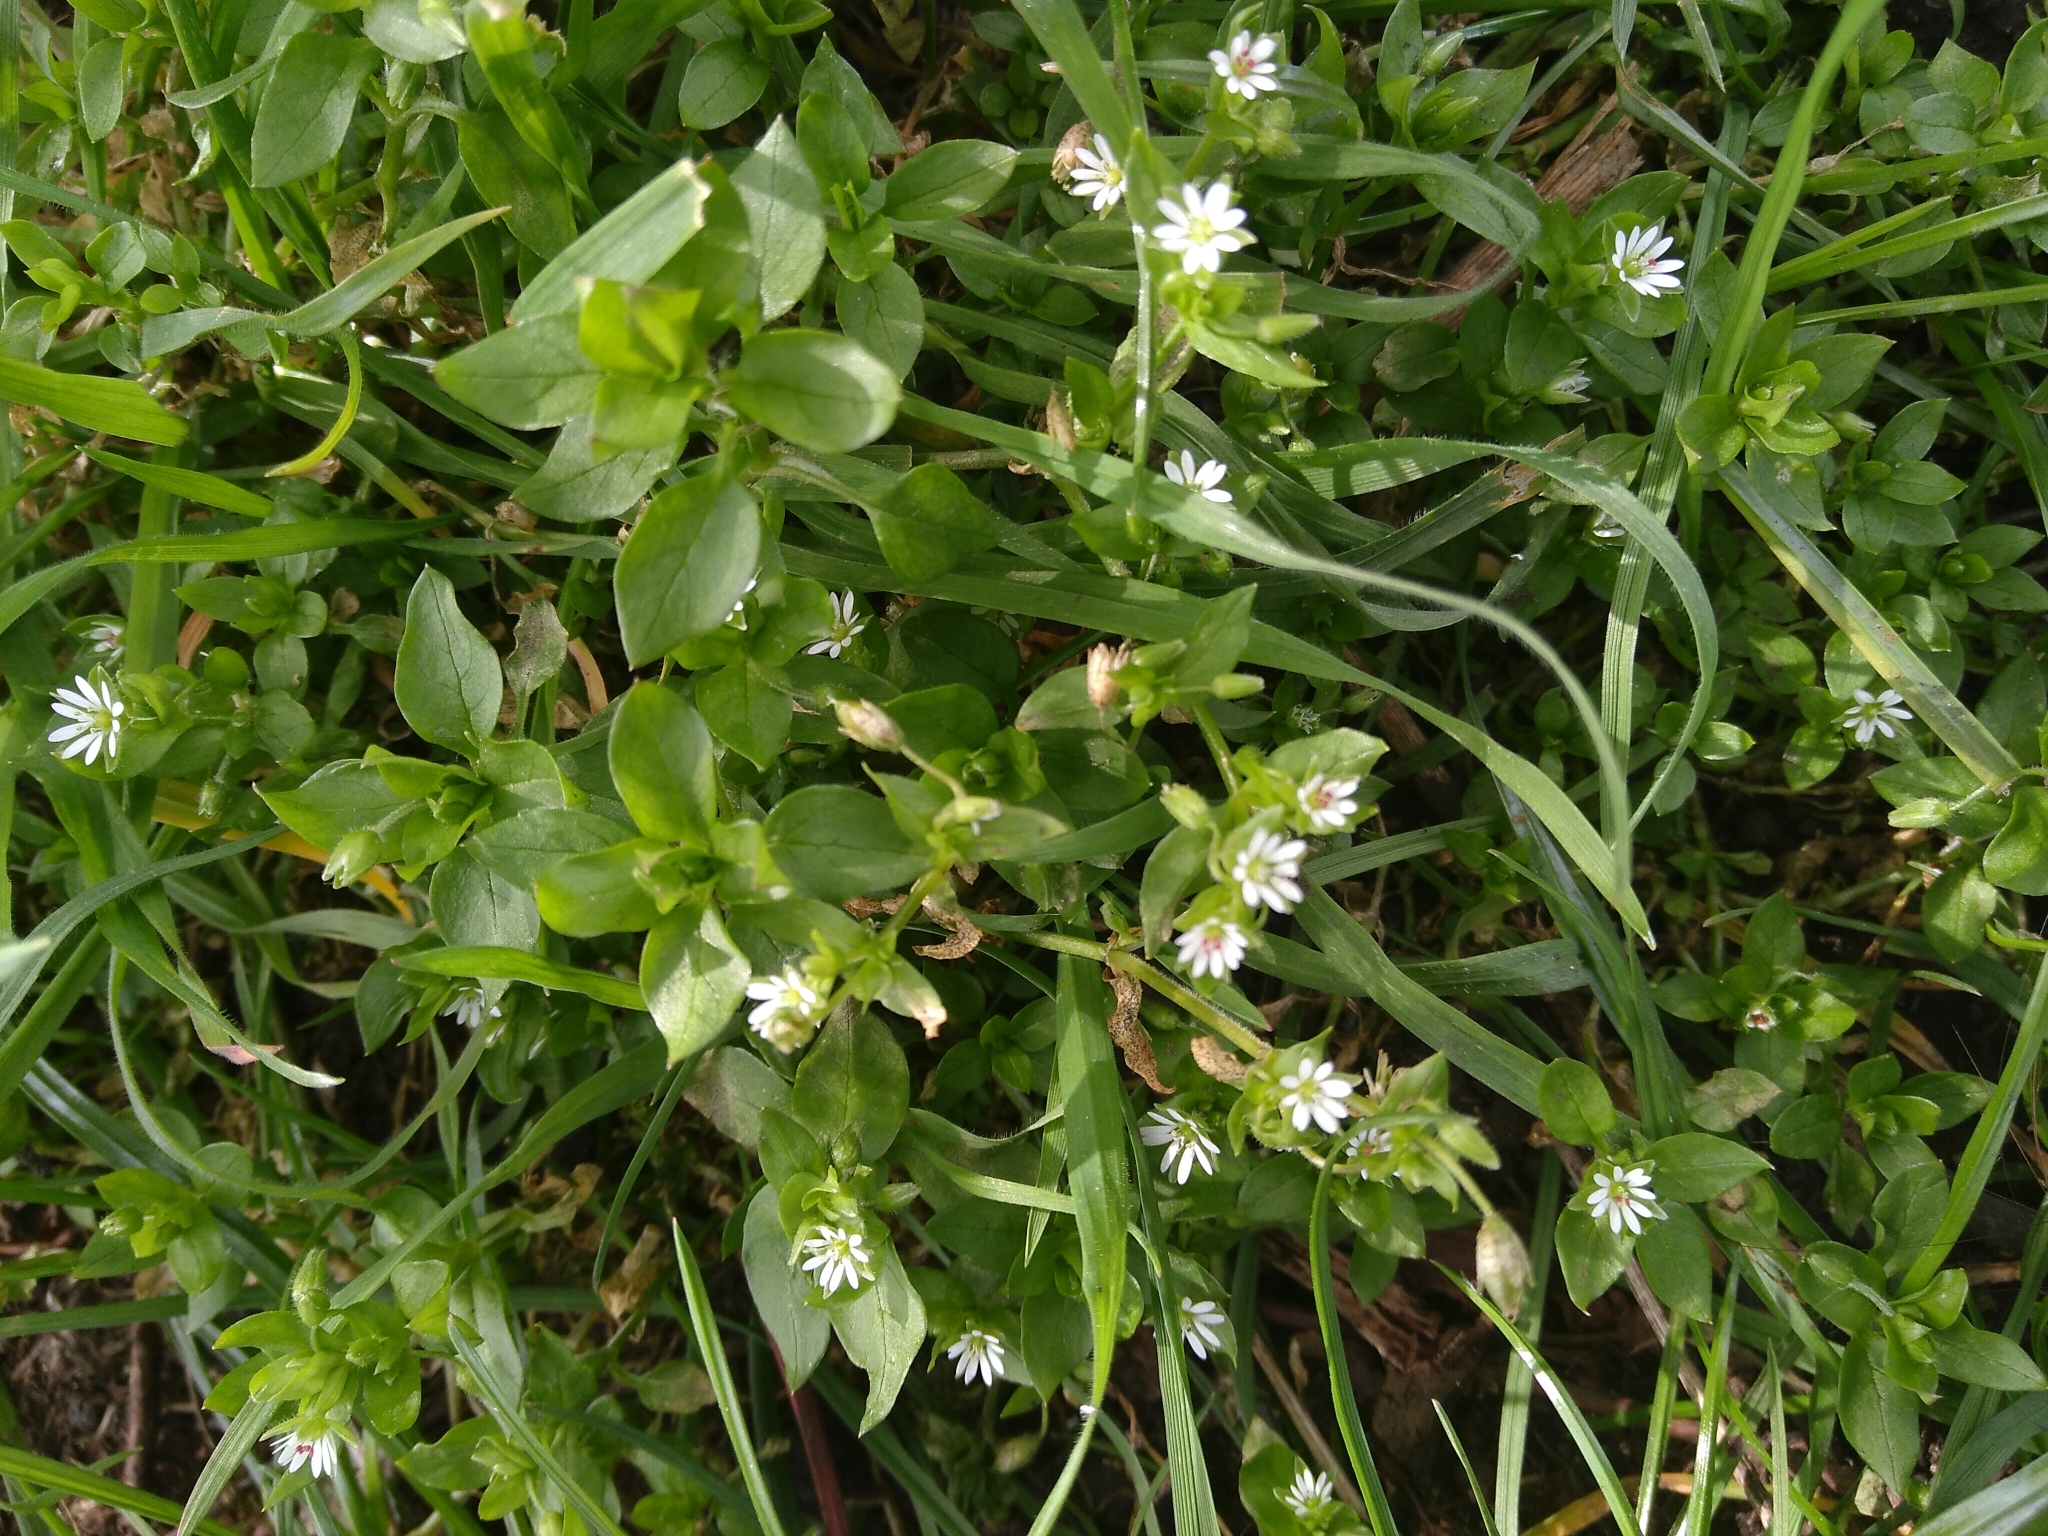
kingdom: Plantae
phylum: Tracheophyta
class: Magnoliopsida
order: Caryophyllales
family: Caryophyllaceae
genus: Stellaria
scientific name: Stellaria media
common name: Common chickweed
